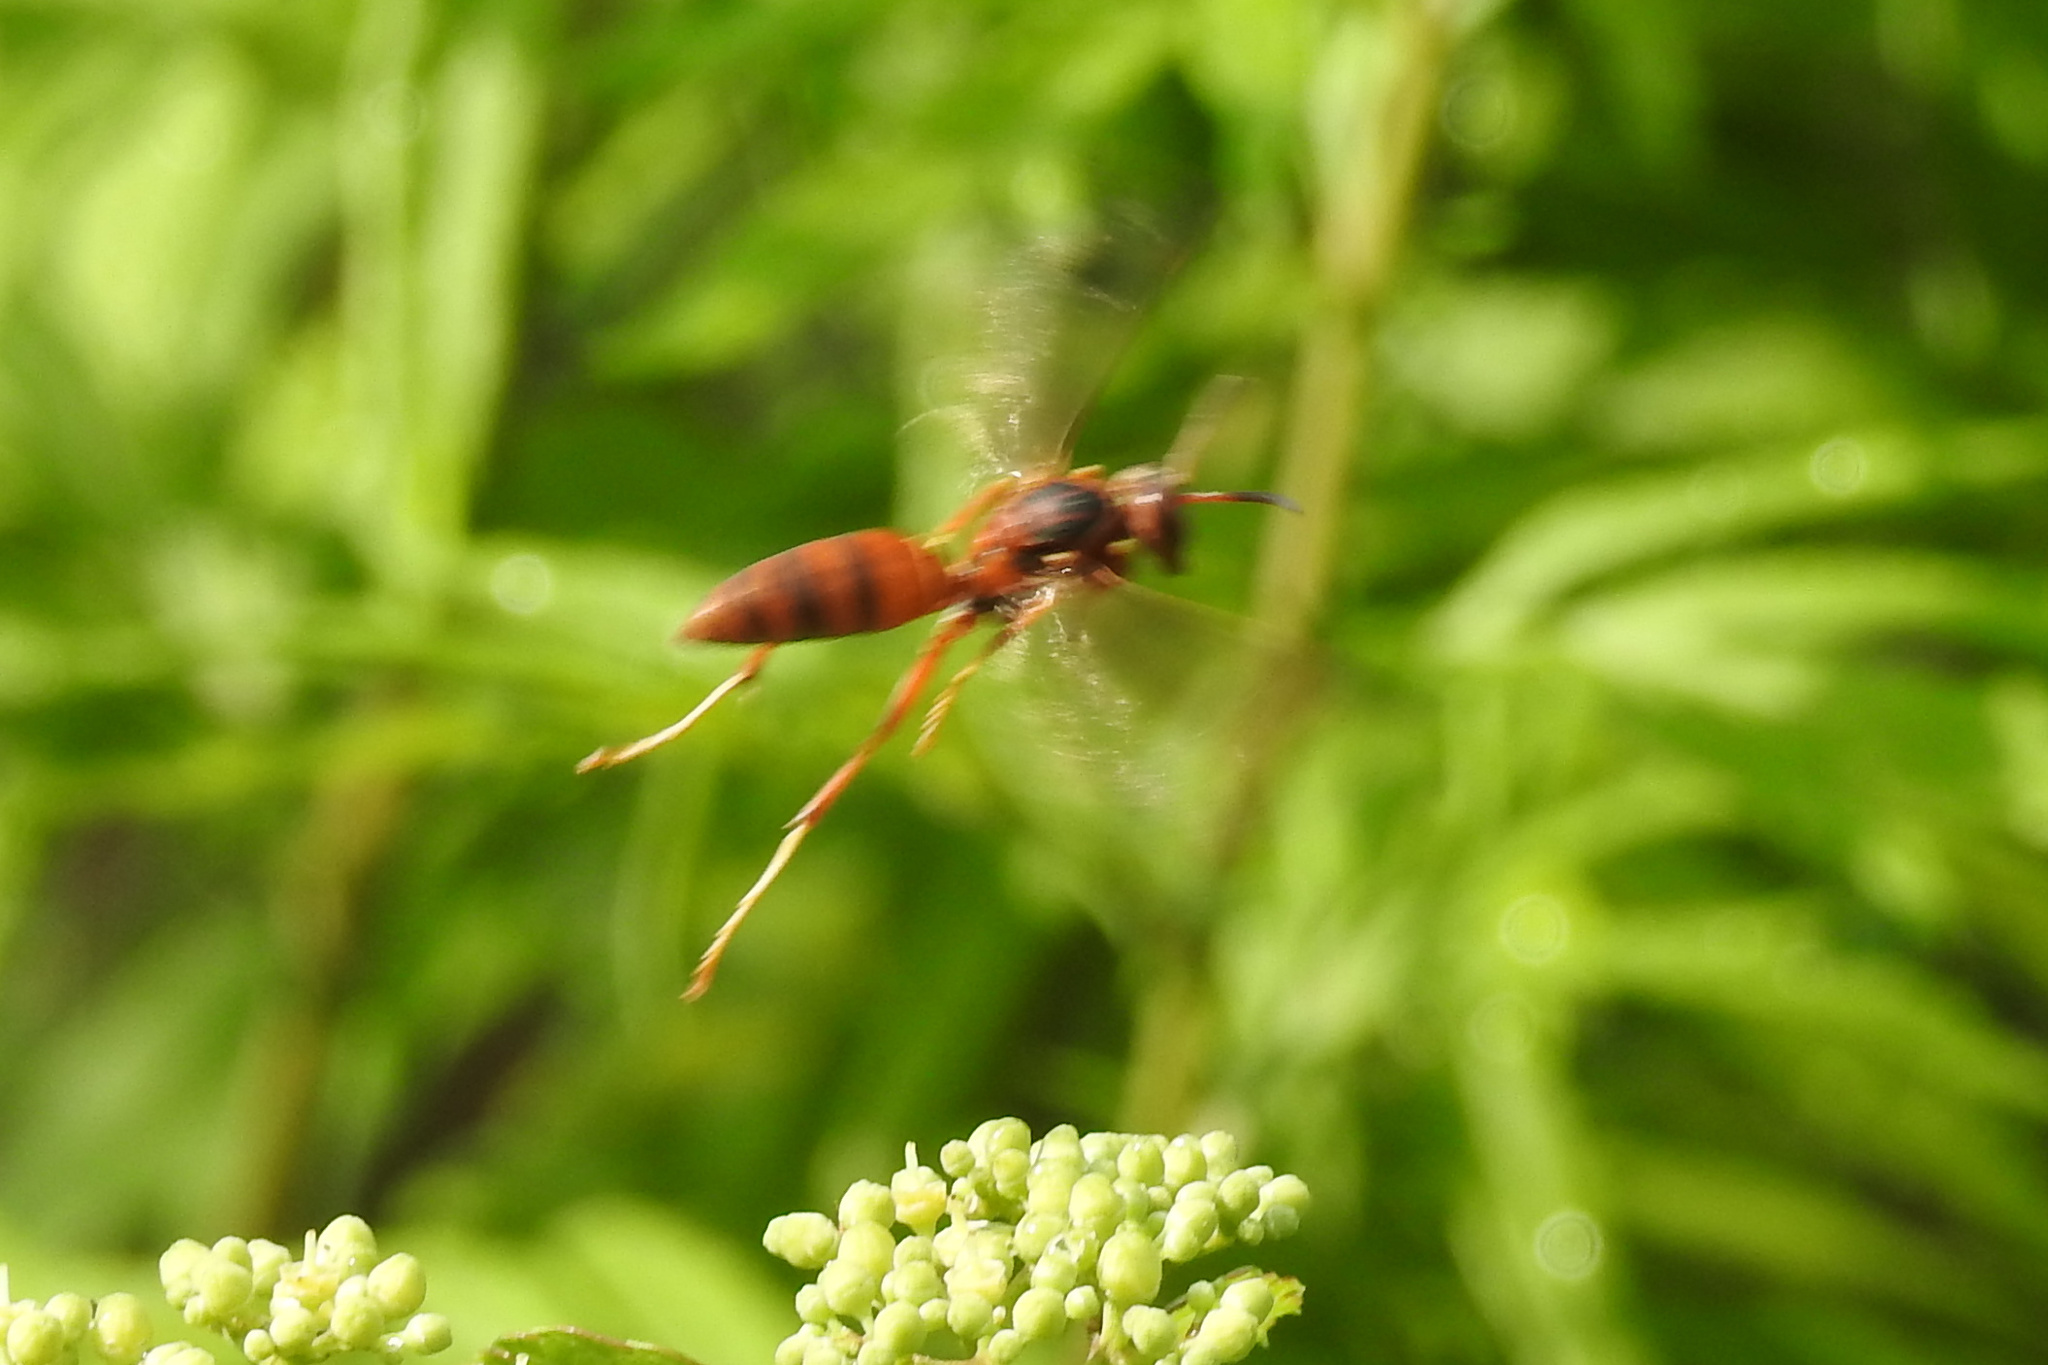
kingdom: Animalia
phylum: Arthropoda
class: Insecta
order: Hymenoptera
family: Vespidae
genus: Fuscopolistes
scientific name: Fuscopolistes
